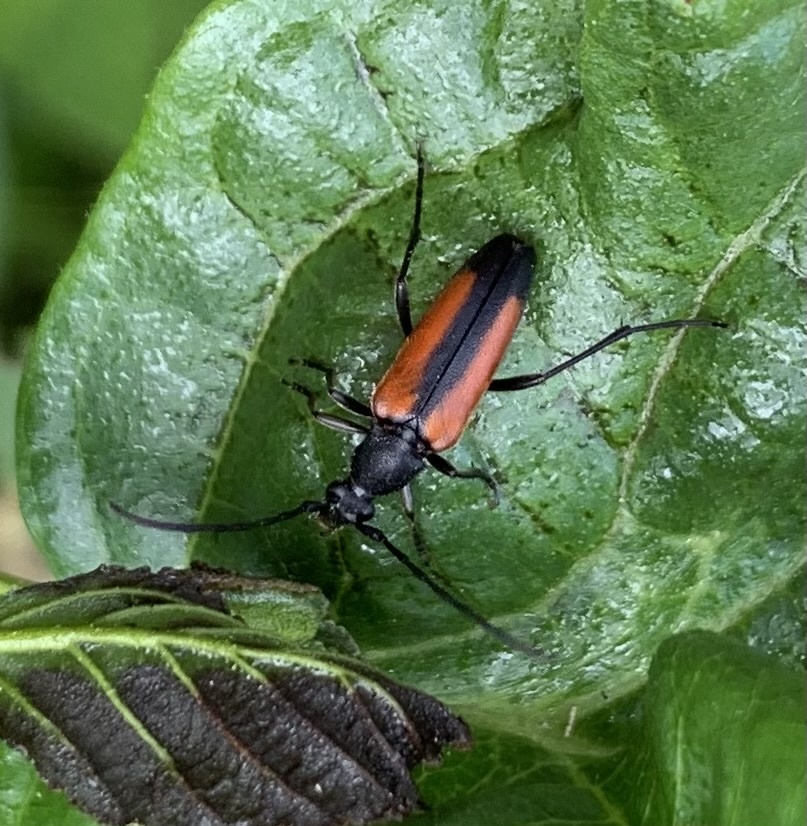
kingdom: Animalia
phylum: Arthropoda
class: Insecta
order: Coleoptera
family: Cerambycidae
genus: Stenurella
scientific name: Stenurella melanura
